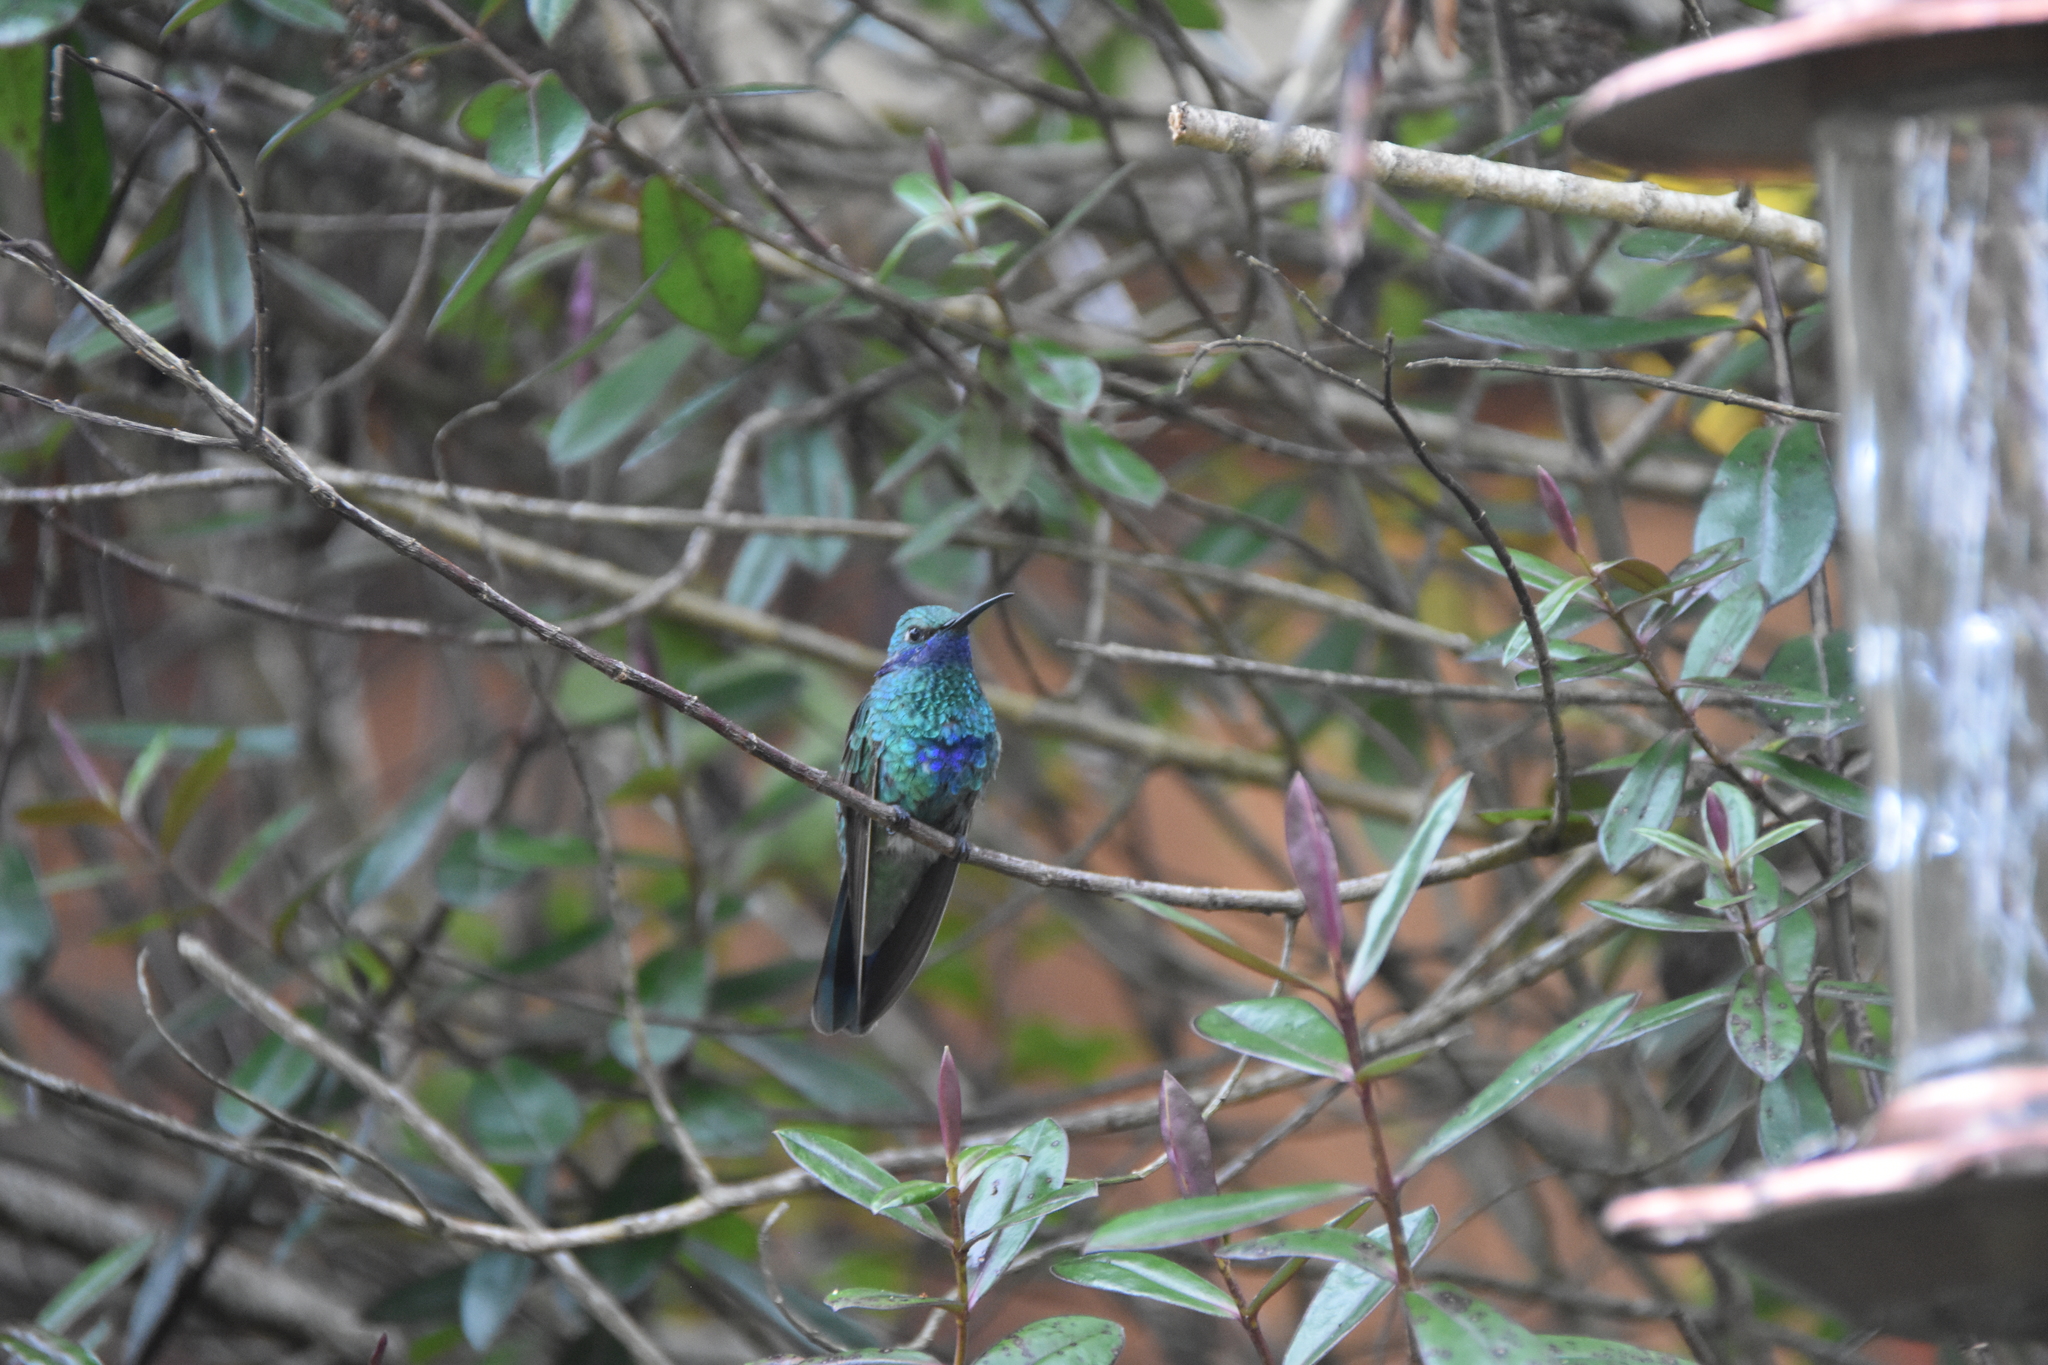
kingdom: Animalia
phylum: Chordata
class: Aves
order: Apodiformes
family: Trochilidae
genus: Colibri
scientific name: Colibri coruscans
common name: Sparkling violetear
